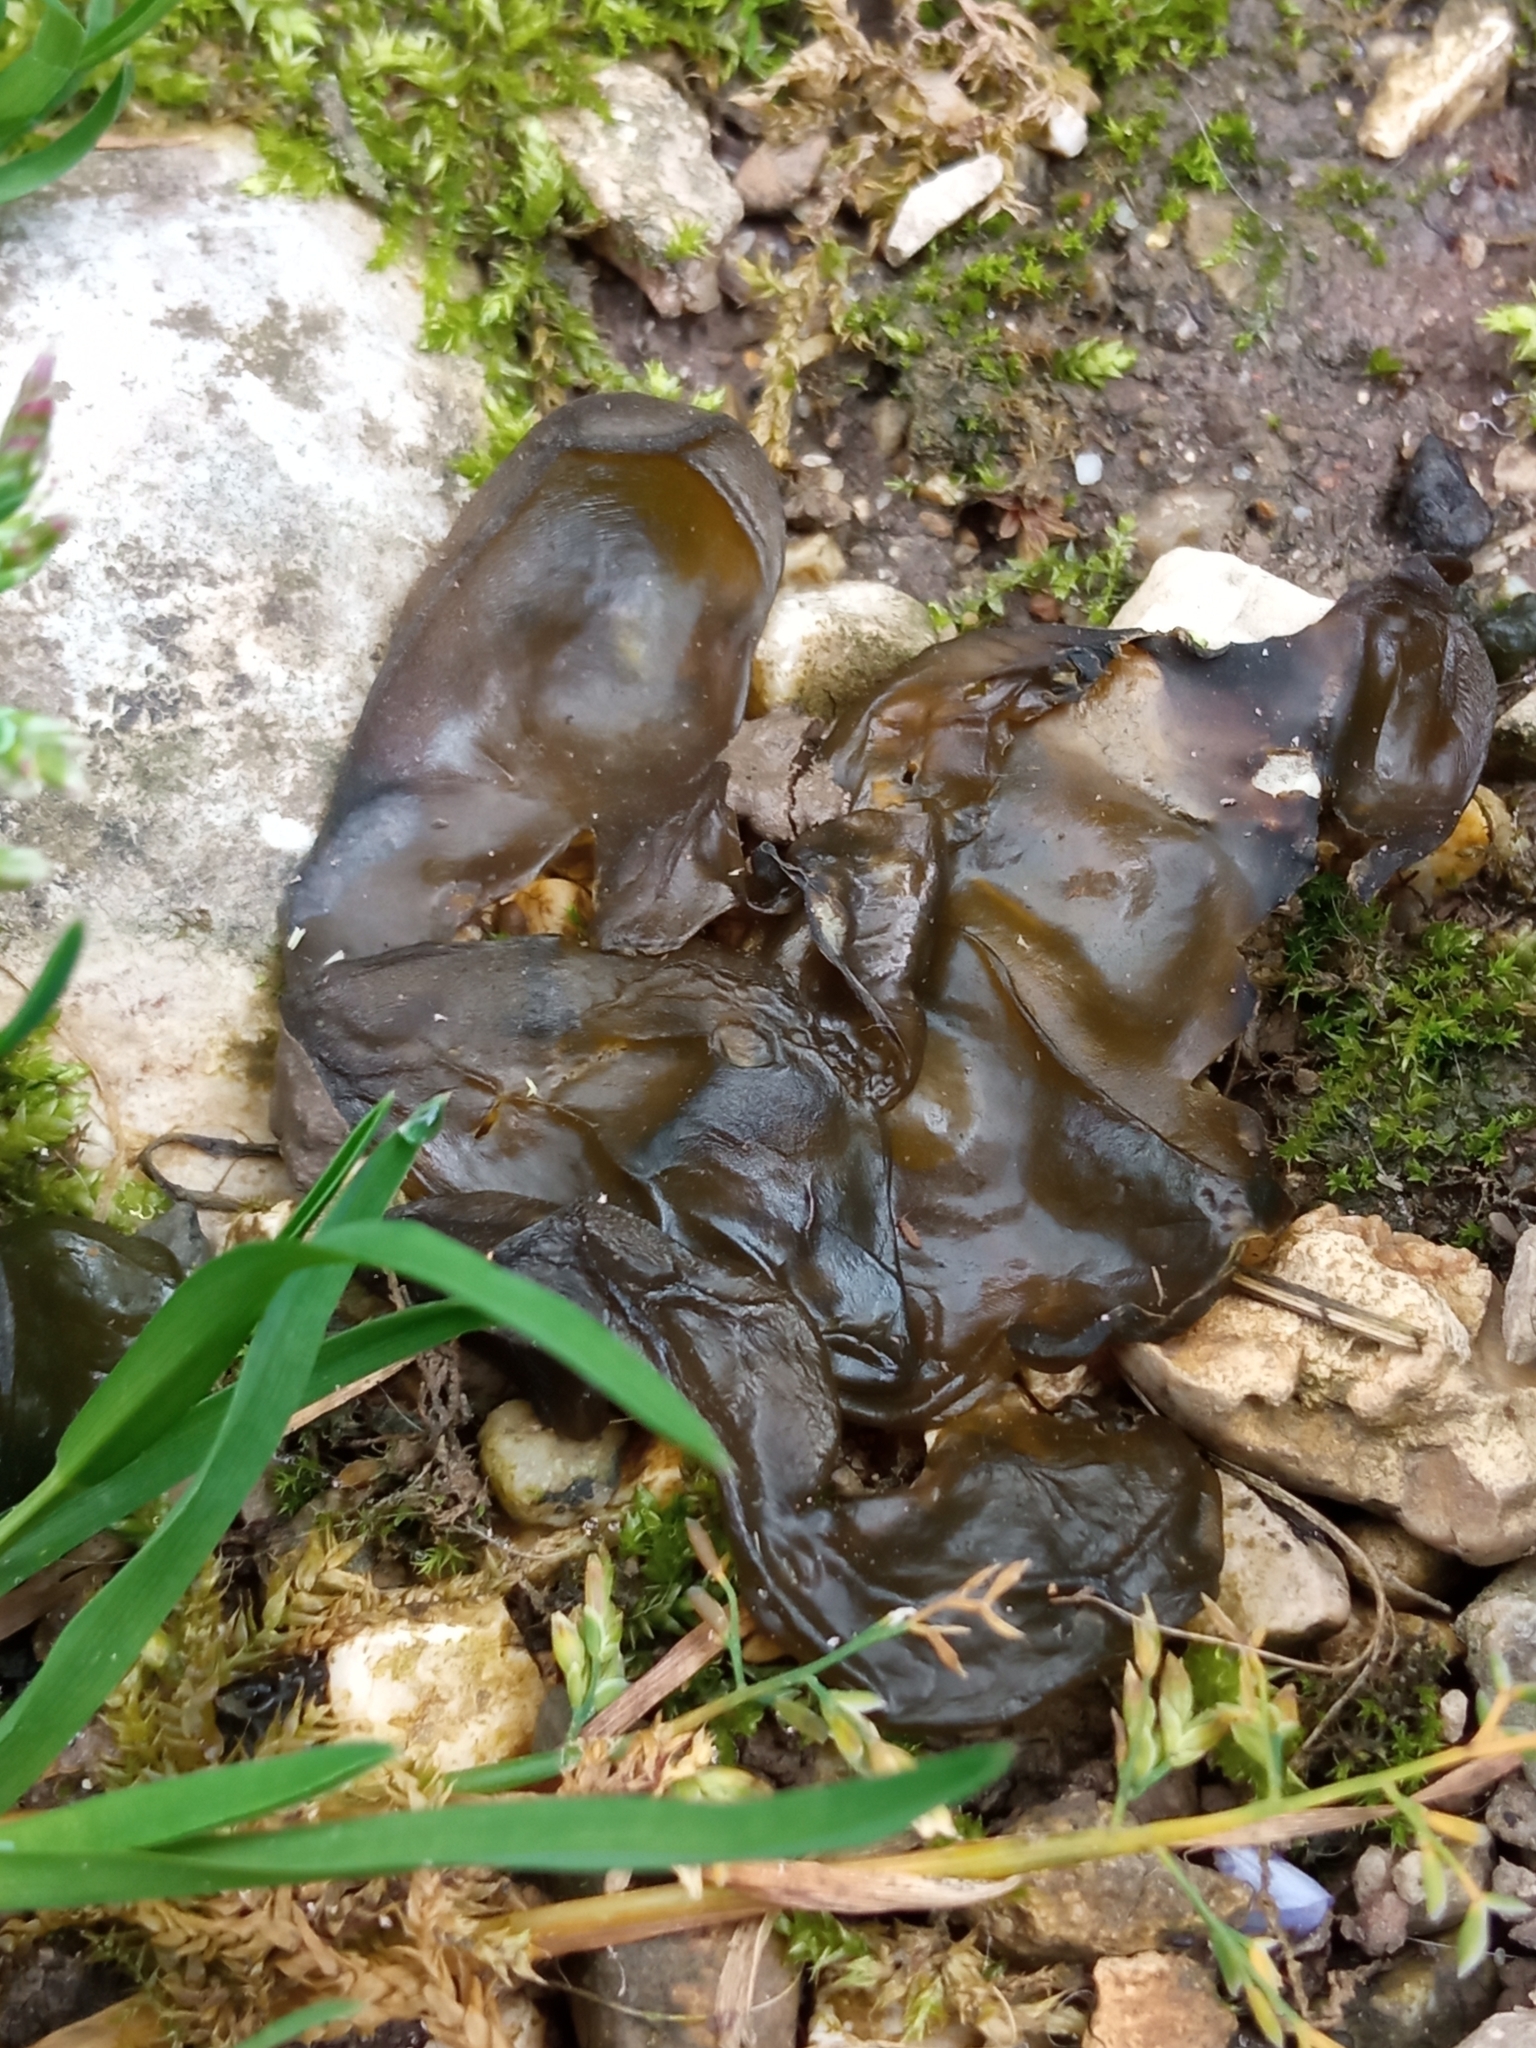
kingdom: Bacteria
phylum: Cyanobacteria
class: Cyanobacteriia
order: Cyanobacteriales
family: Nostocaceae
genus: Nostoc
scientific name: Nostoc commune
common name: Star jelly
